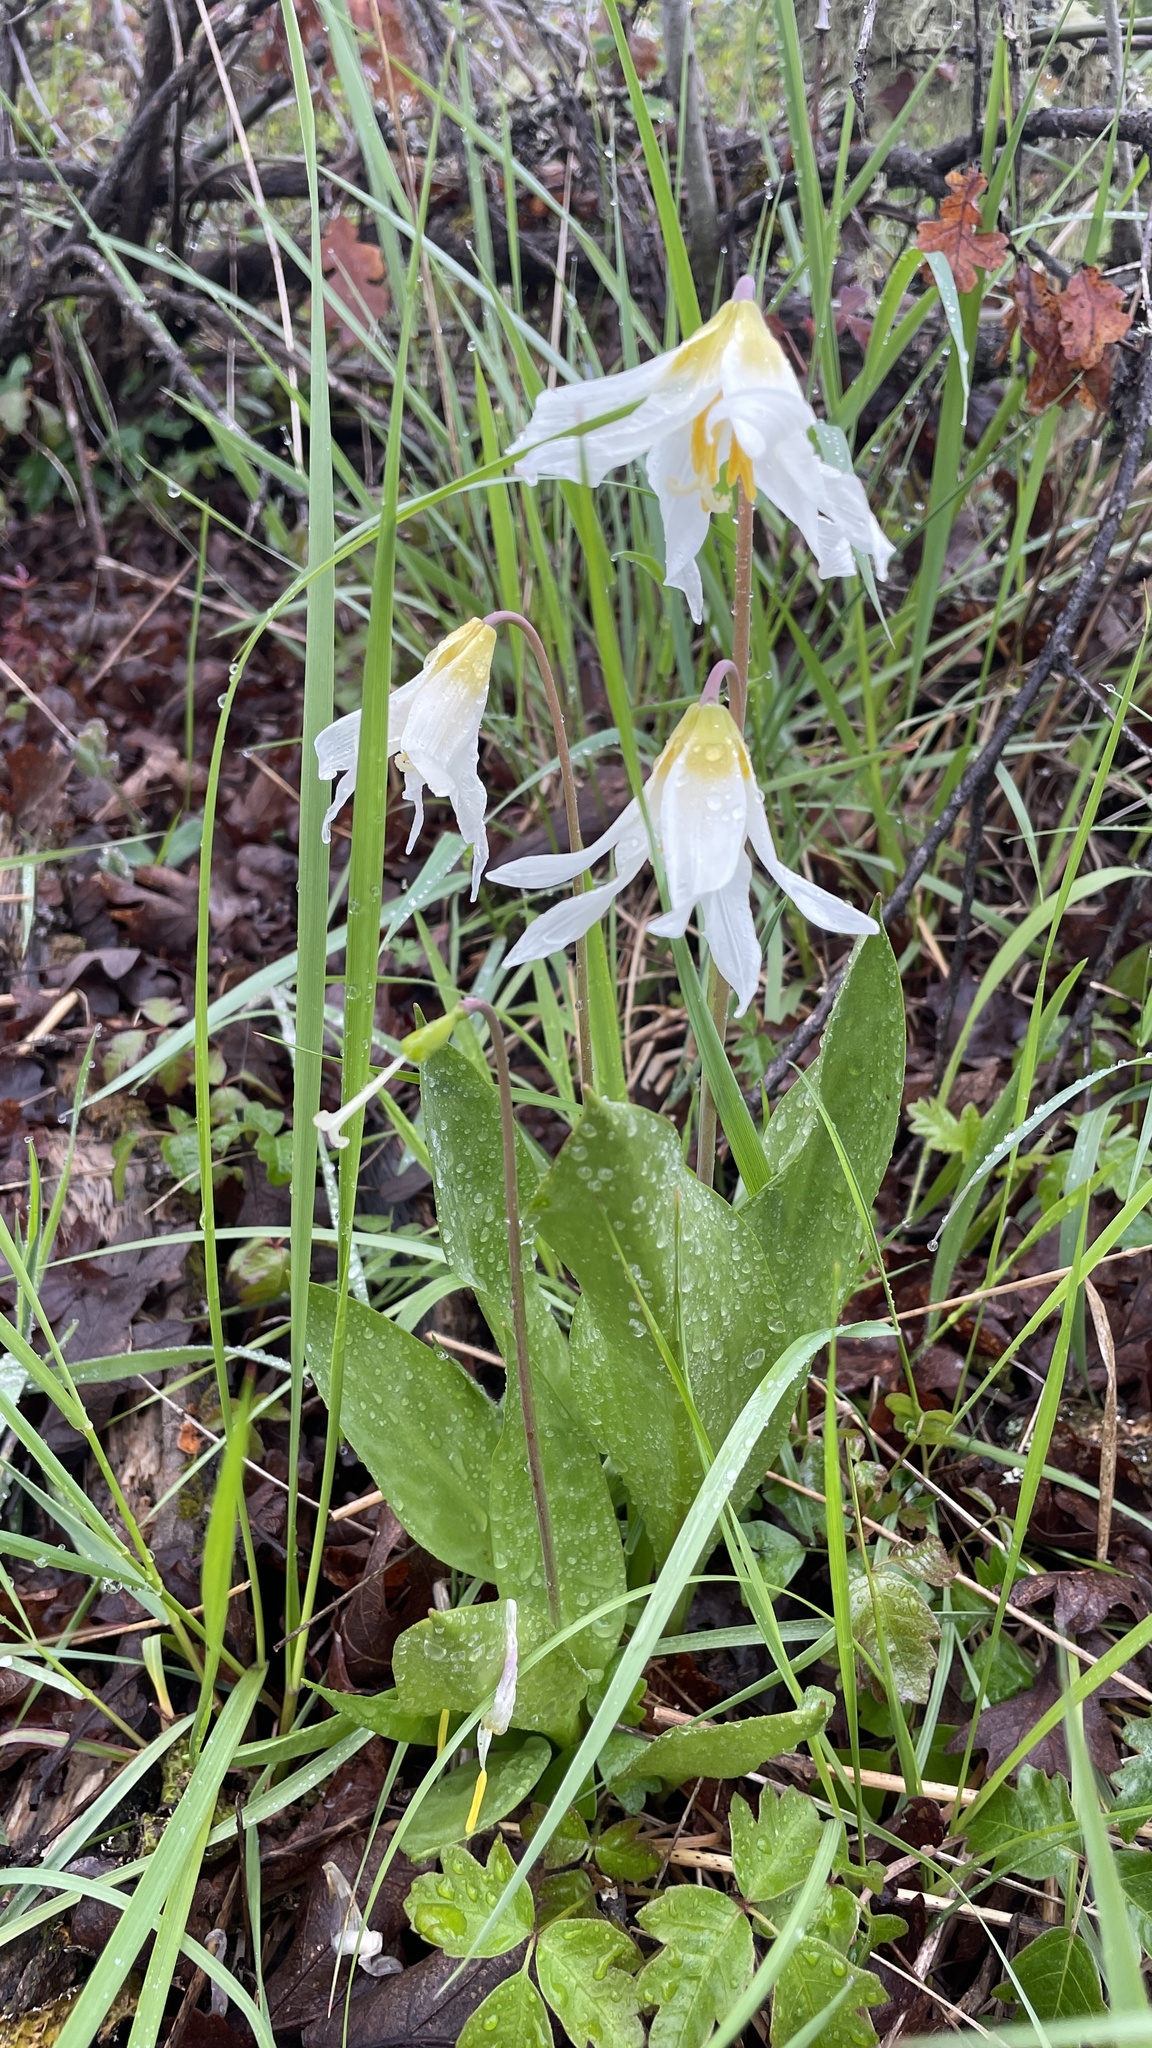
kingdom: Plantae
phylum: Tracheophyta
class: Liliopsida
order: Liliales
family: Liliaceae
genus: Erythronium
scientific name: Erythronium oregonum
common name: Giant adder's-tongue
